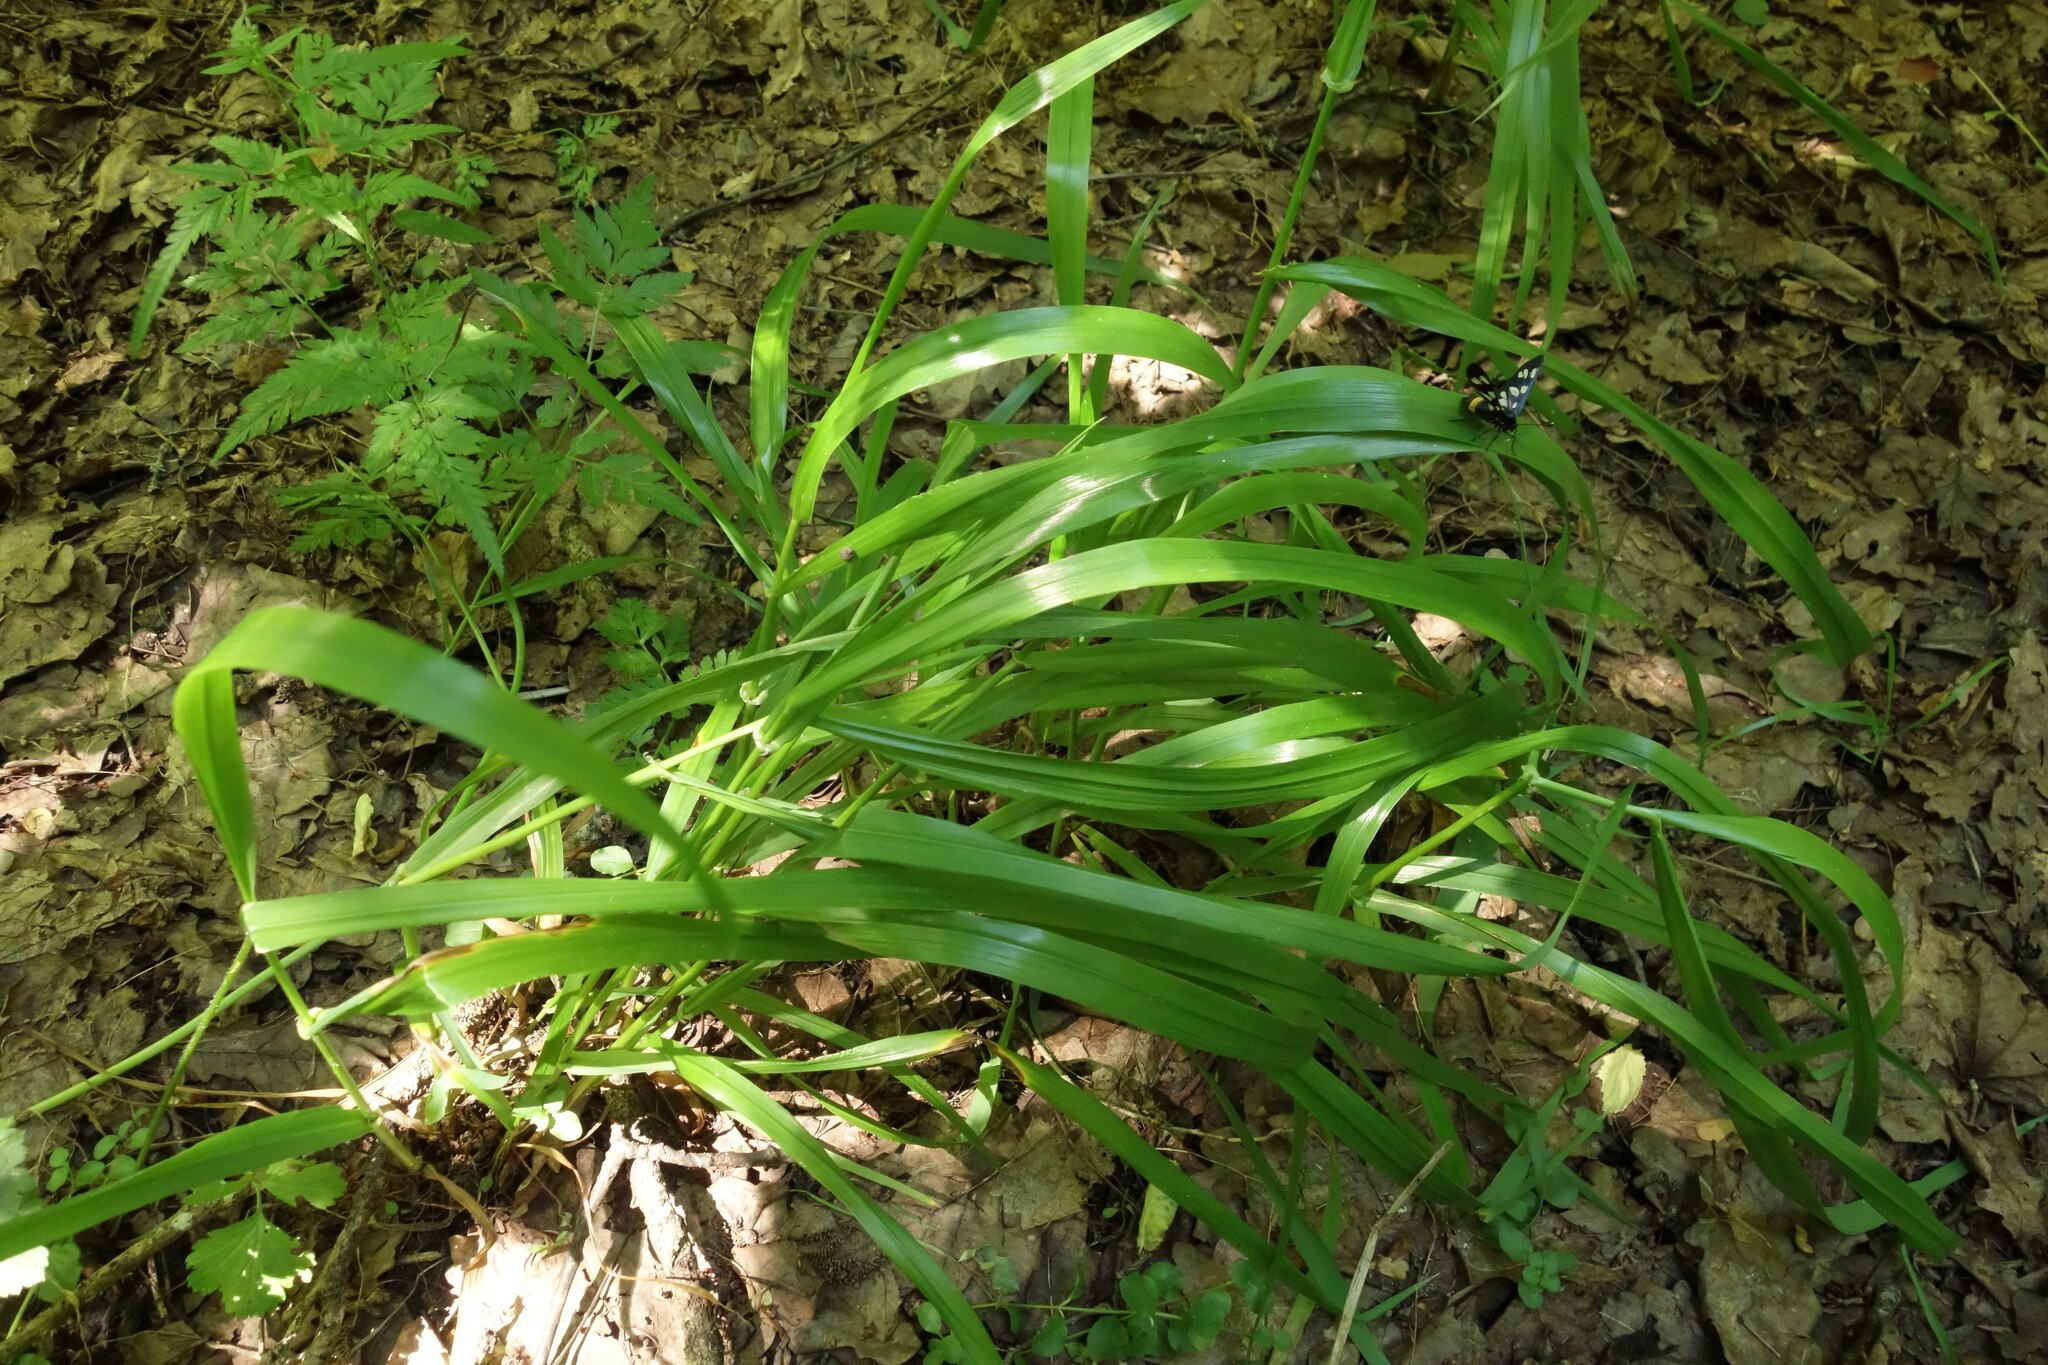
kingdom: Plantae
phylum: Tracheophyta
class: Liliopsida
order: Poales
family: Poaceae
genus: Lolium
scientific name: Lolium giganteum
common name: Giant fescue
